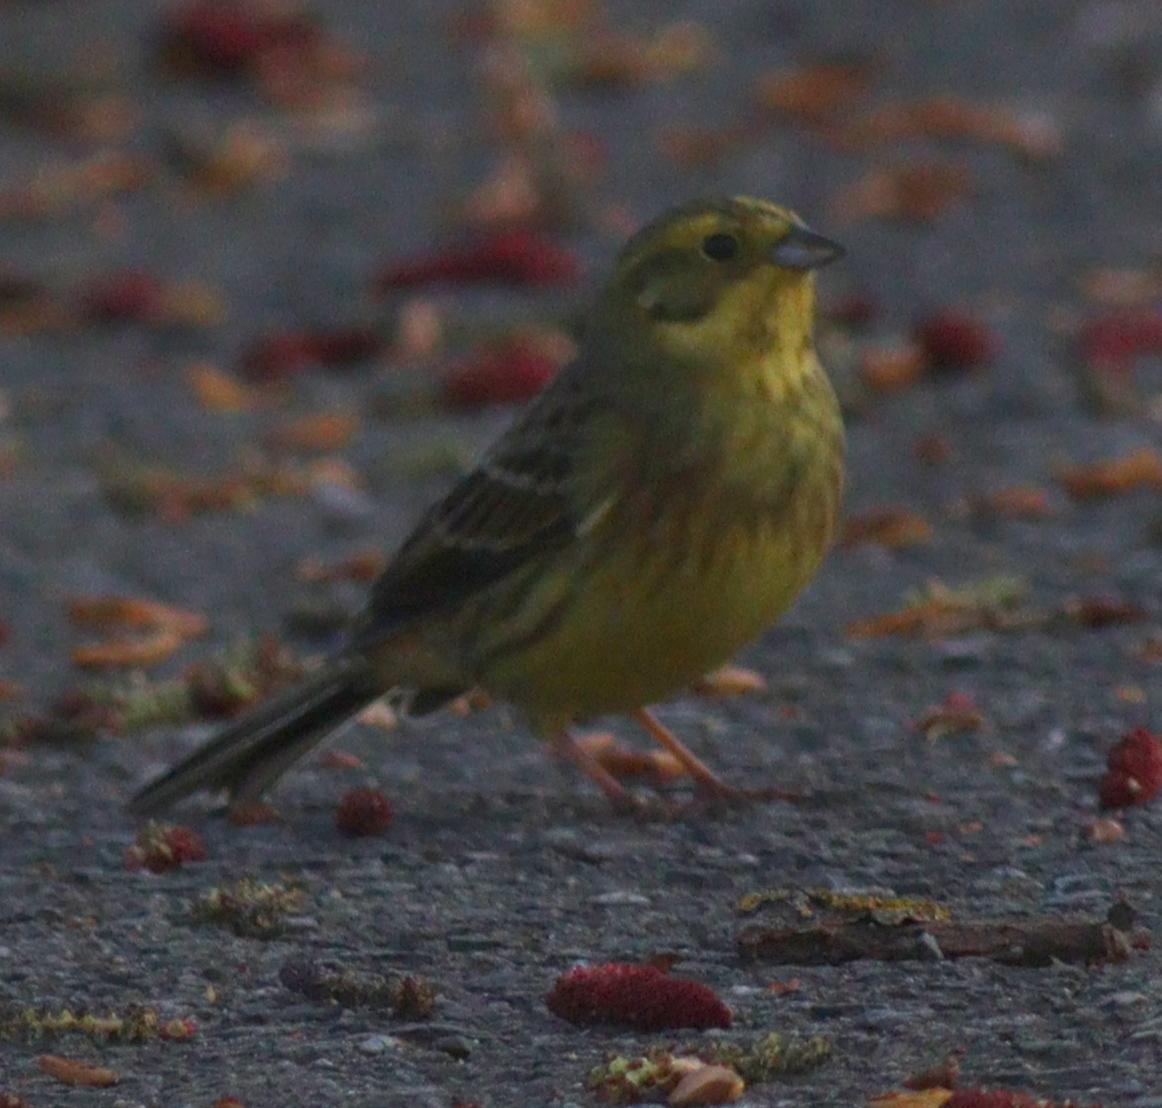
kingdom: Animalia
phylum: Chordata
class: Aves
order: Passeriformes
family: Emberizidae
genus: Emberiza
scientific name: Emberiza citrinella
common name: Yellowhammer
